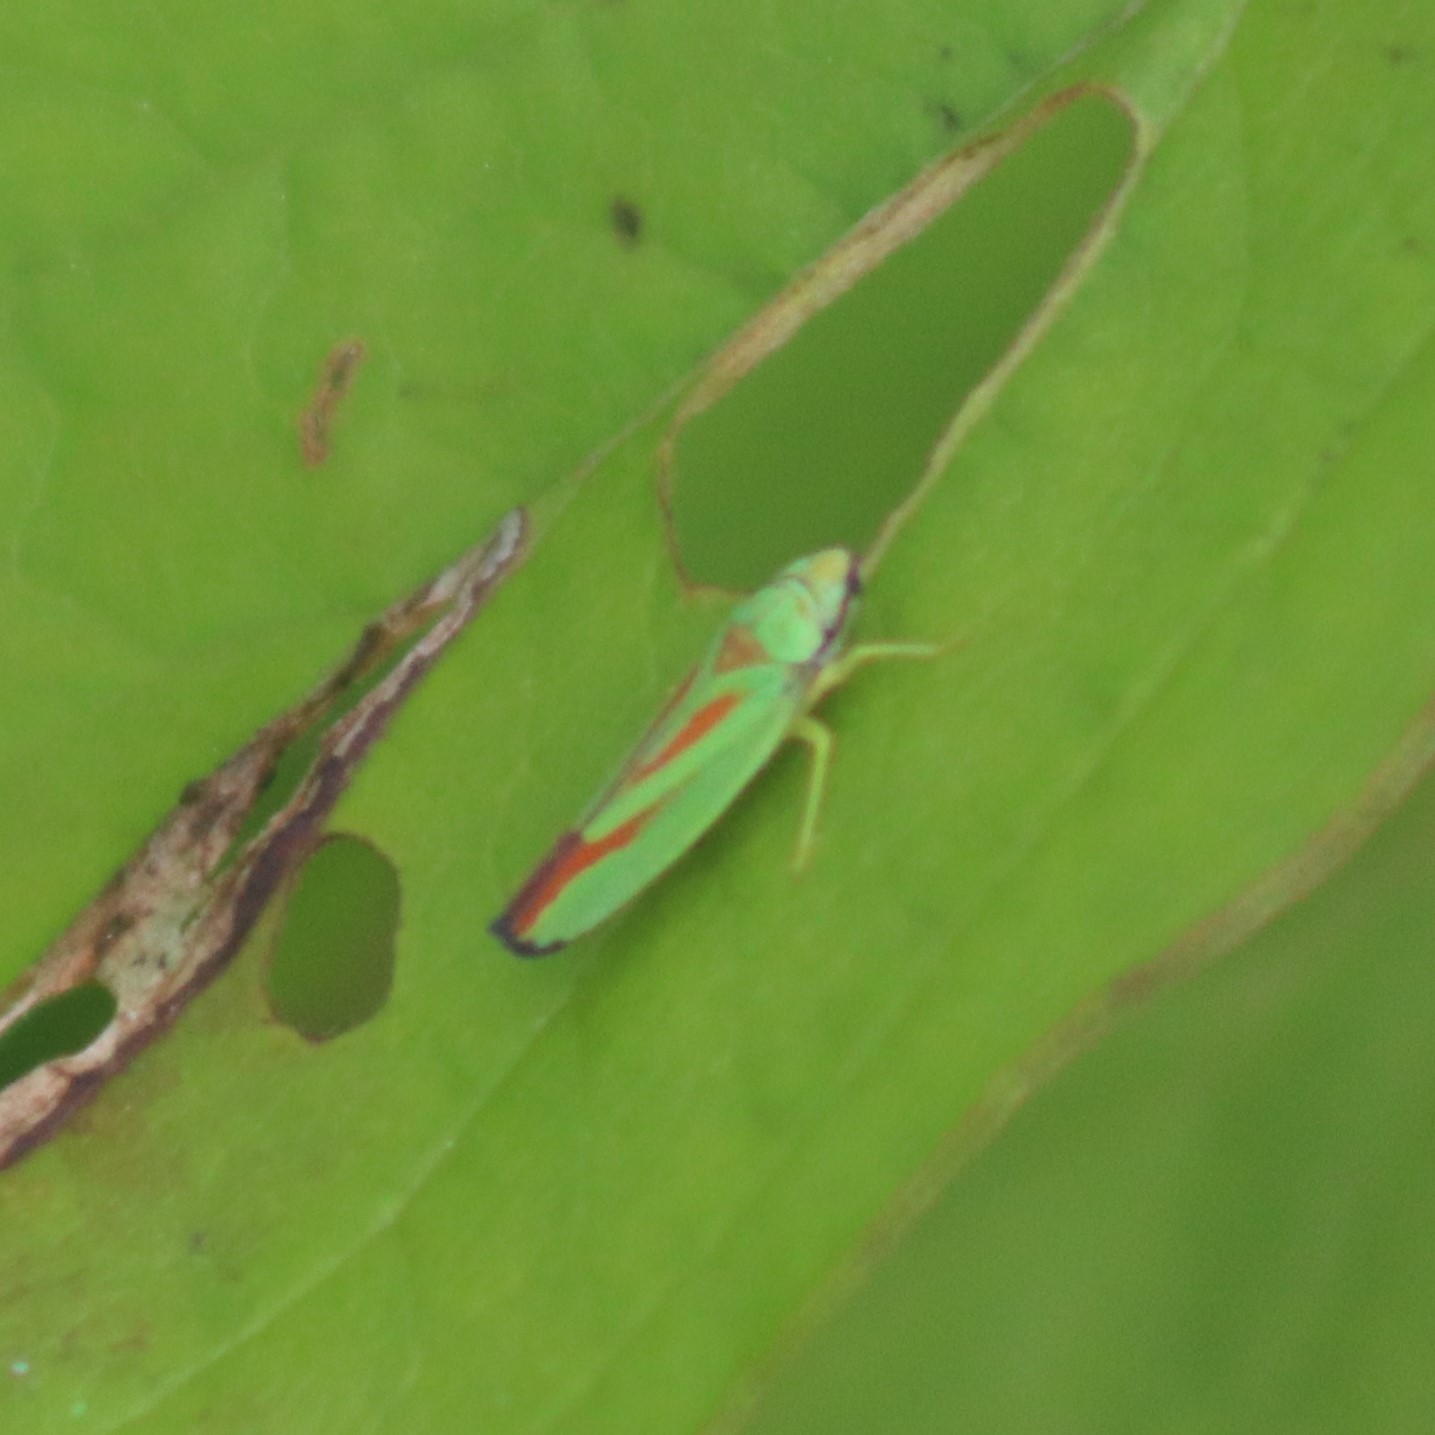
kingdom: Animalia
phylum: Arthropoda
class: Insecta
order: Hemiptera
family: Cicadellidae
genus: Graphocephala
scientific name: Graphocephala fennahi
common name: Rhododendron leafhopper
